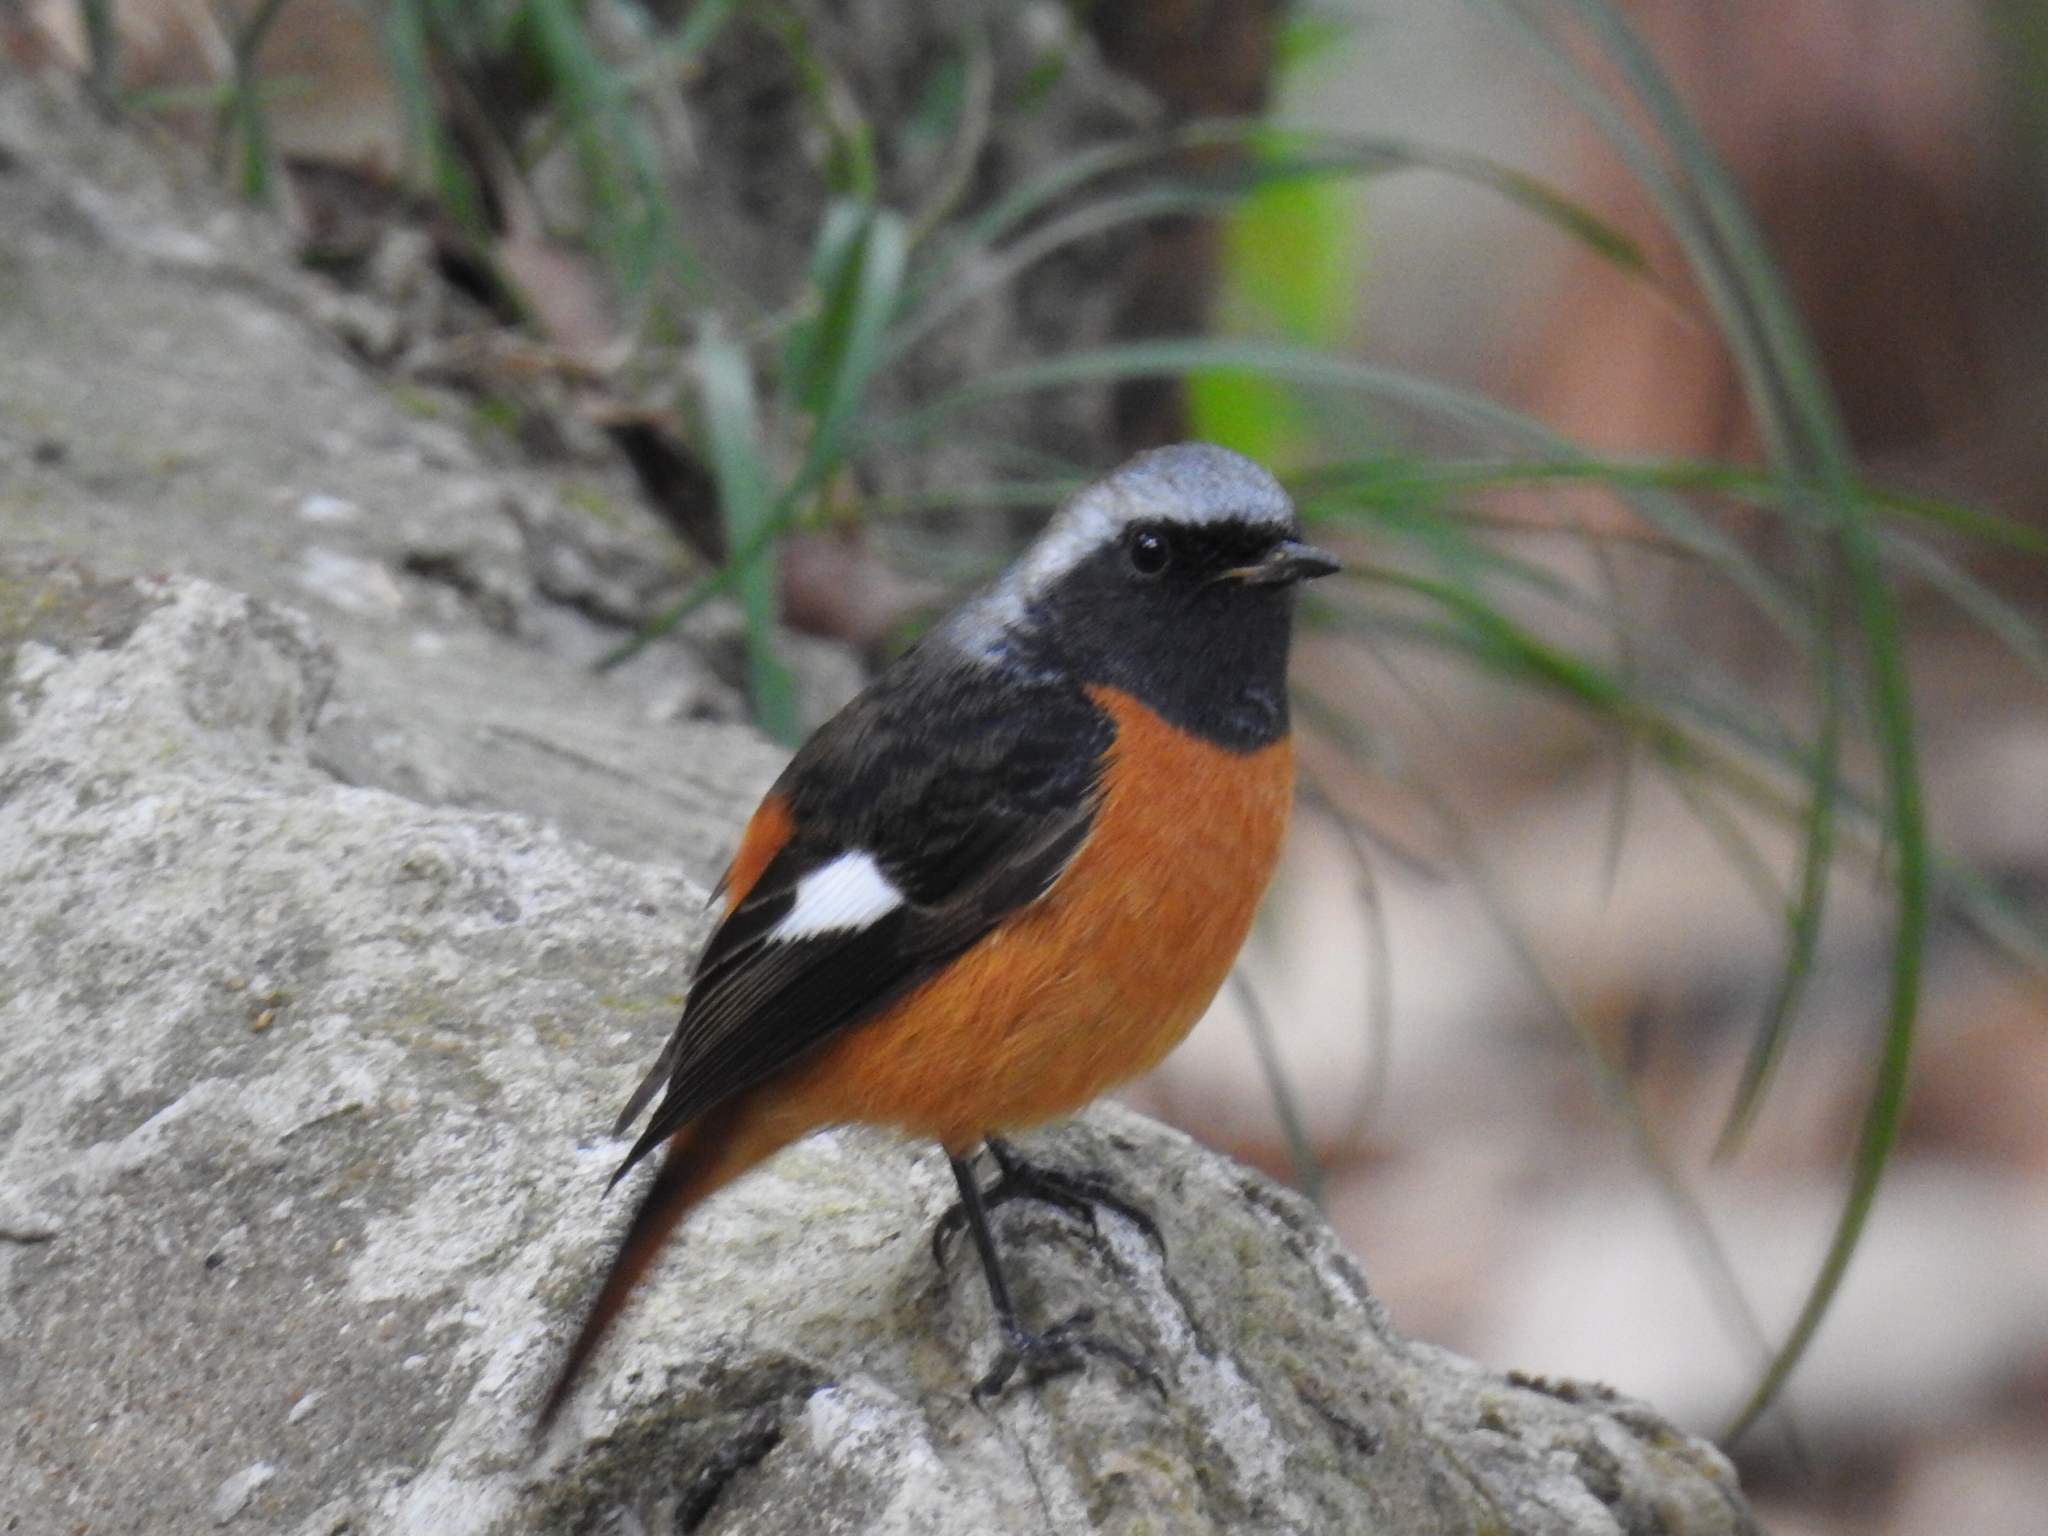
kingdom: Animalia
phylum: Chordata
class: Aves
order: Passeriformes
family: Muscicapidae
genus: Phoenicurus
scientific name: Phoenicurus auroreus
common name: Daurian redstart
